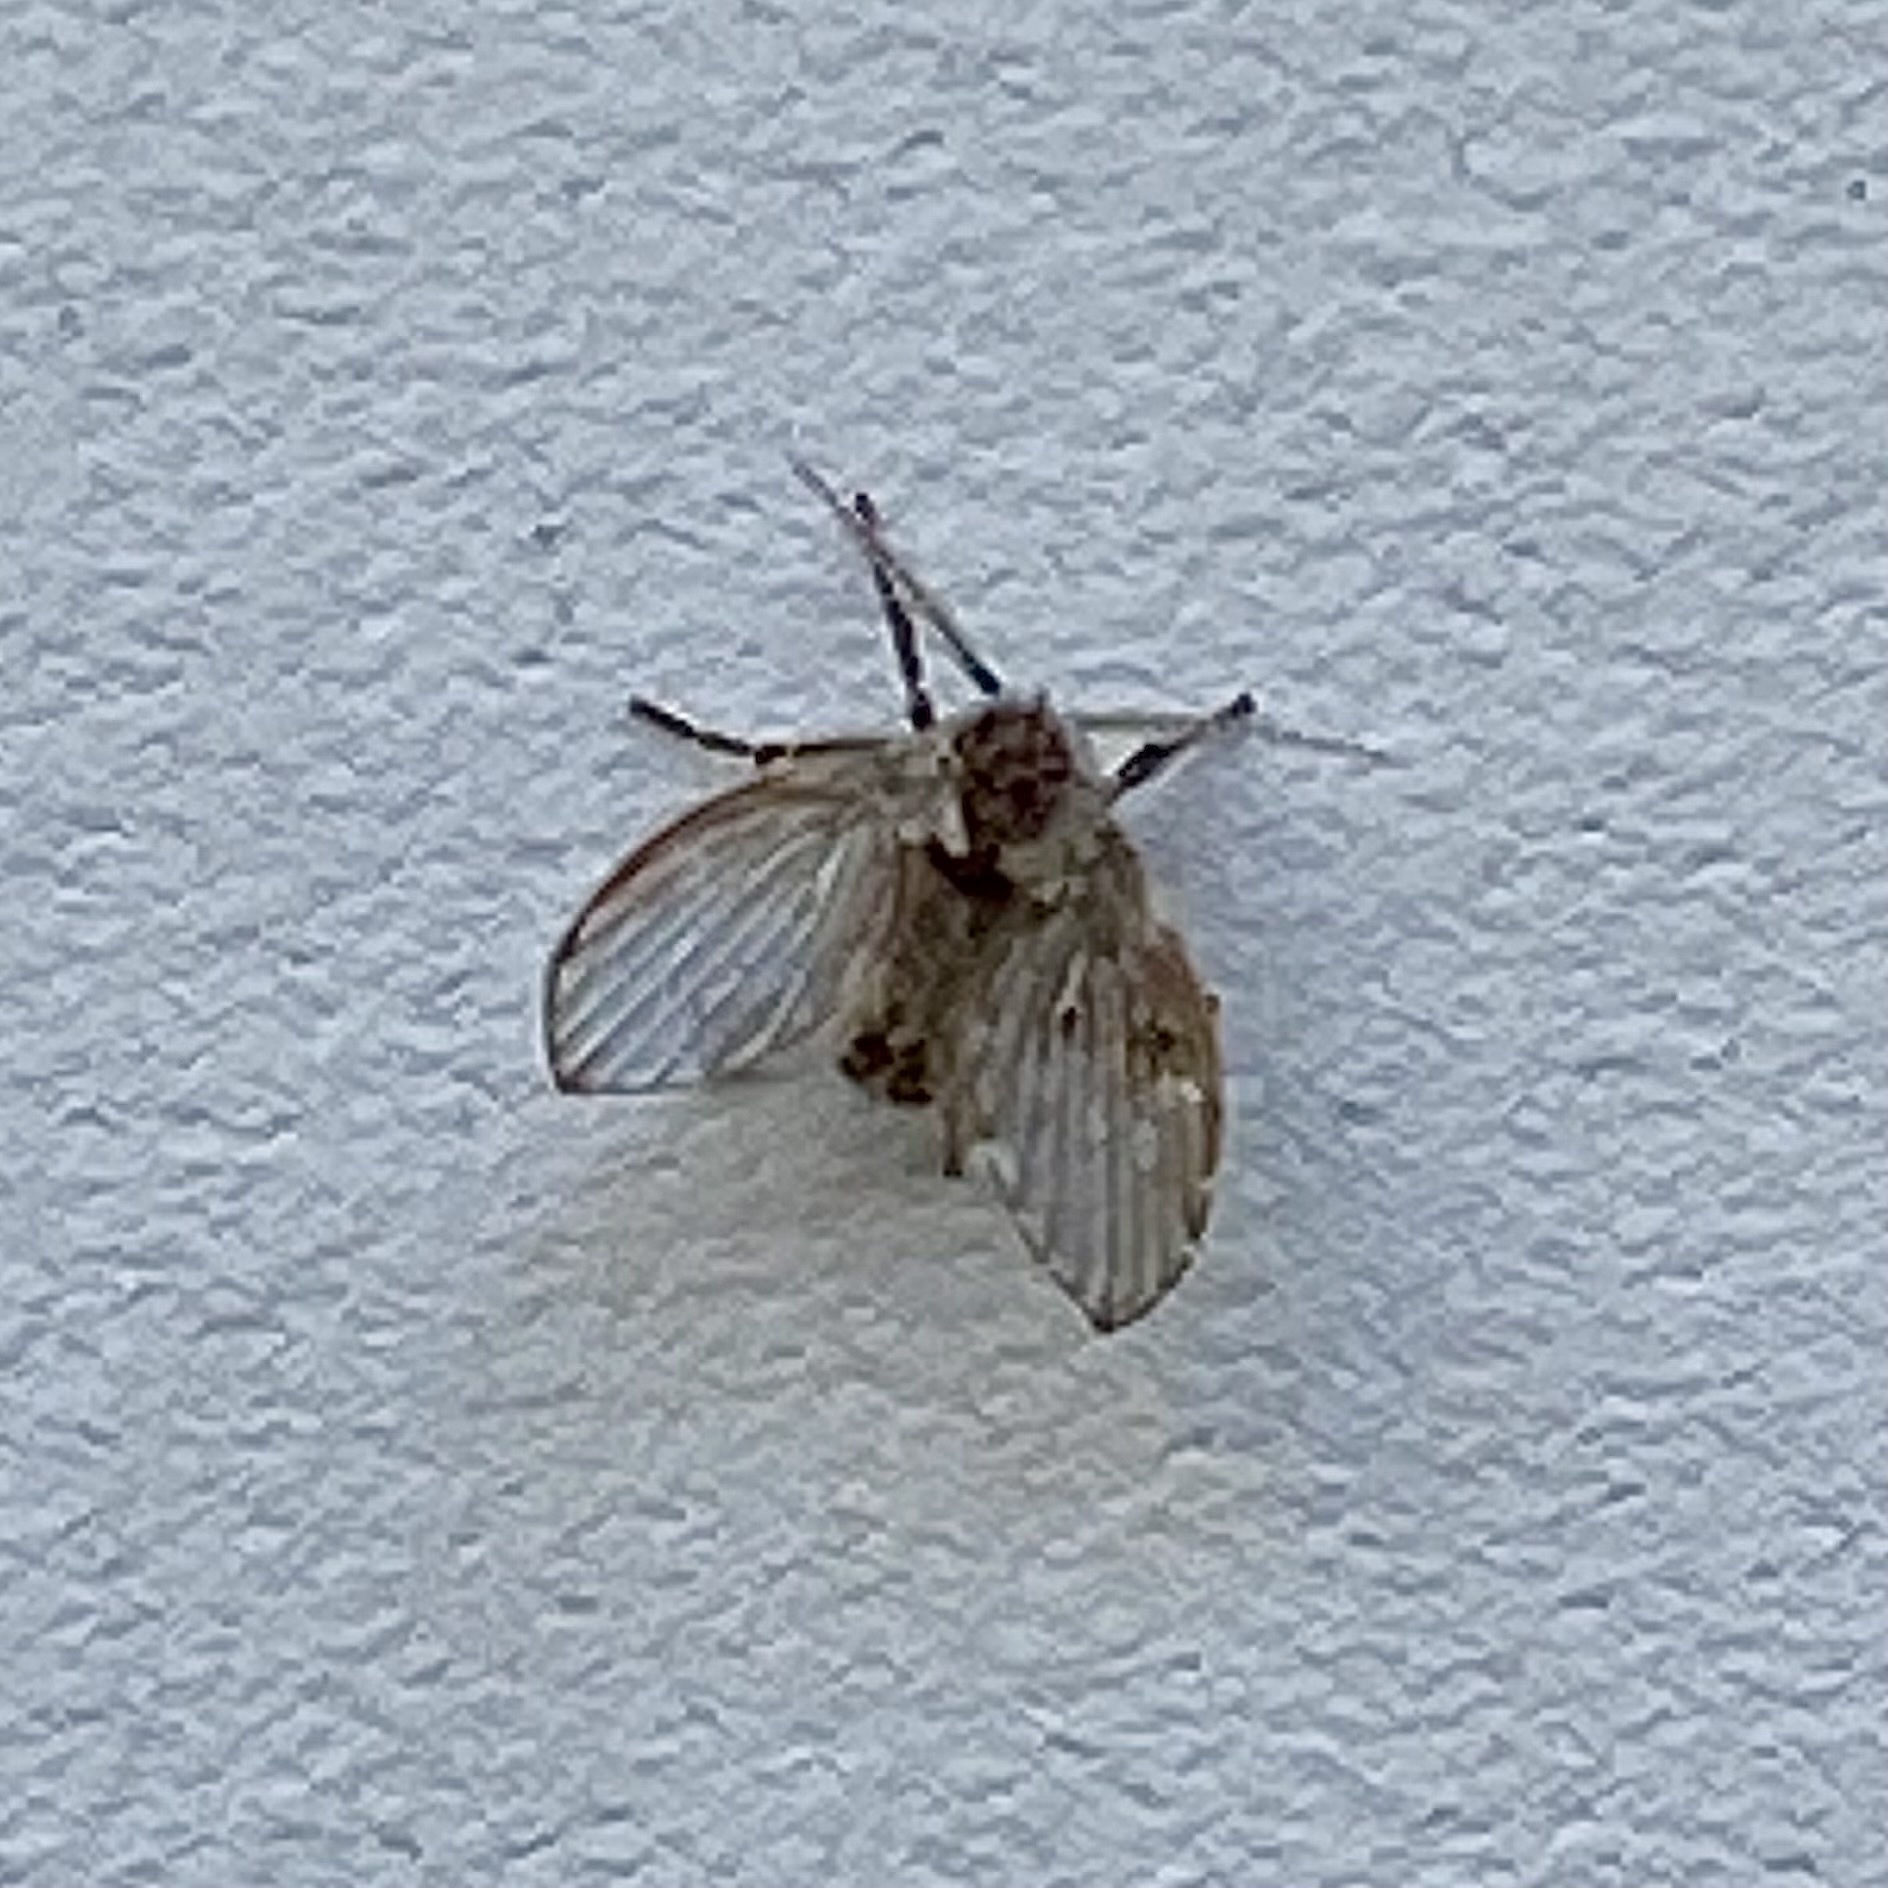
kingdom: Animalia
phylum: Arthropoda
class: Insecta
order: Diptera
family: Psychodidae
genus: Clogmia
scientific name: Clogmia albipunctatus
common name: White-spotted moth fly
